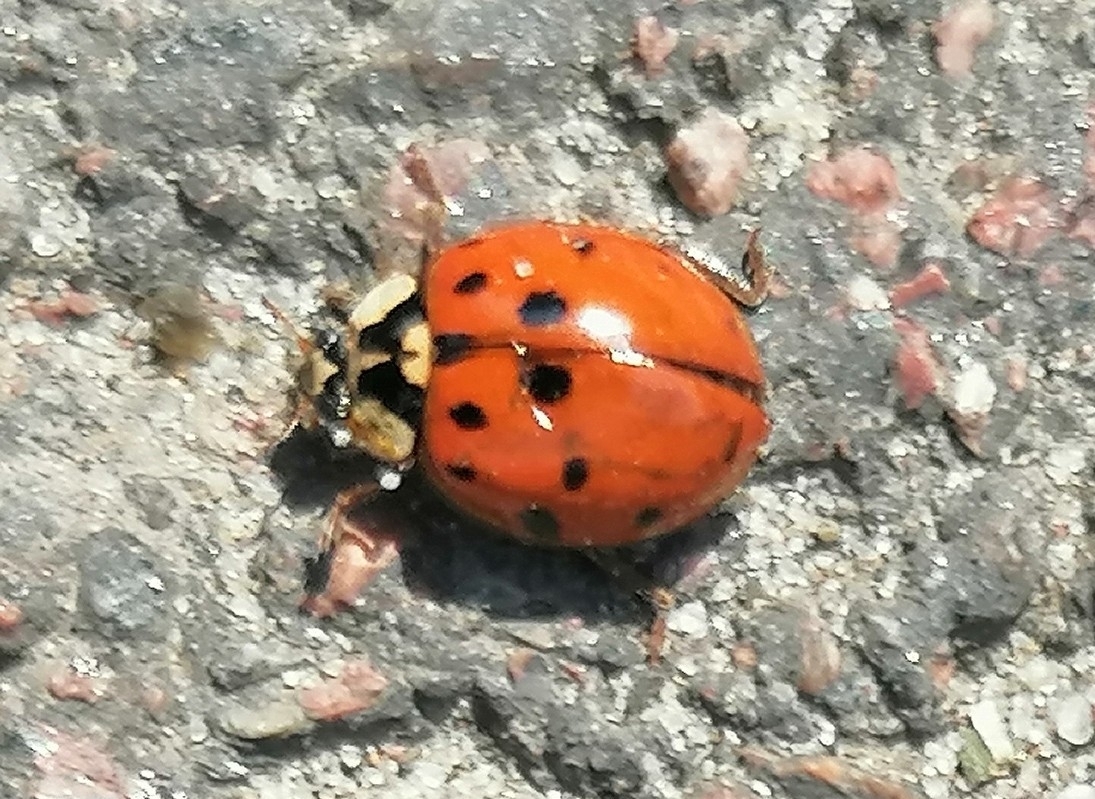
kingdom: Animalia
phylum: Arthropoda
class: Insecta
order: Coleoptera
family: Coccinellidae
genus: Harmonia
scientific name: Harmonia axyridis
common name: Harlequin ladybird
